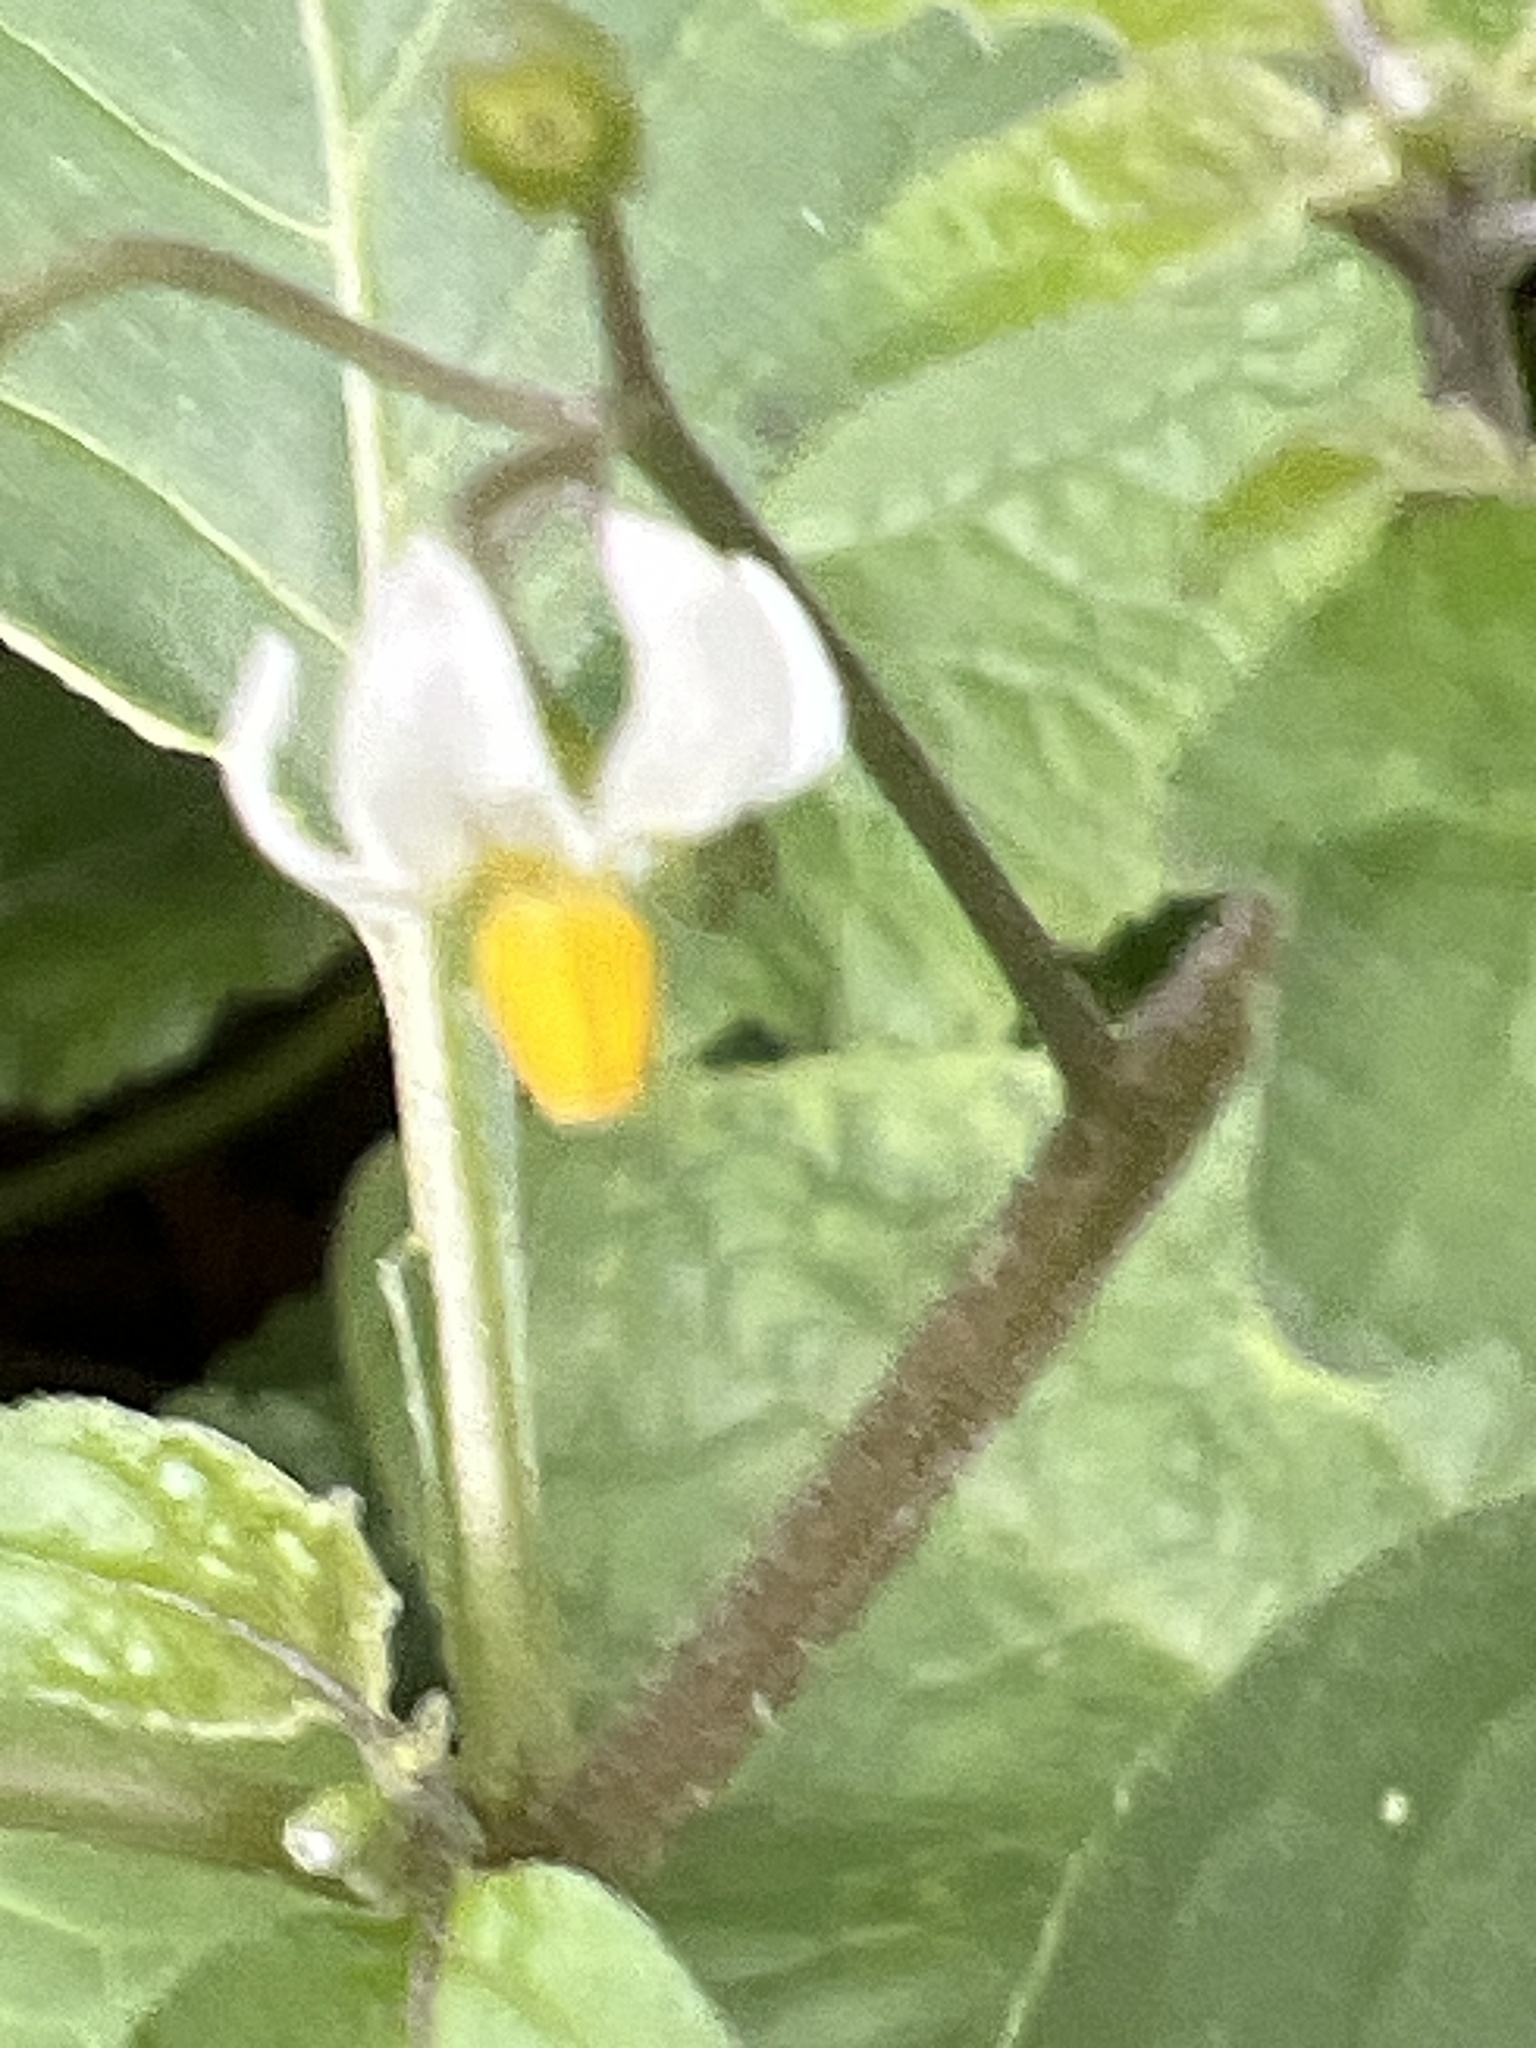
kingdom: Plantae
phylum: Tracheophyta
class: Magnoliopsida
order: Solanales
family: Solanaceae
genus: Solanum
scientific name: Solanum nigrum
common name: Black nightshade
